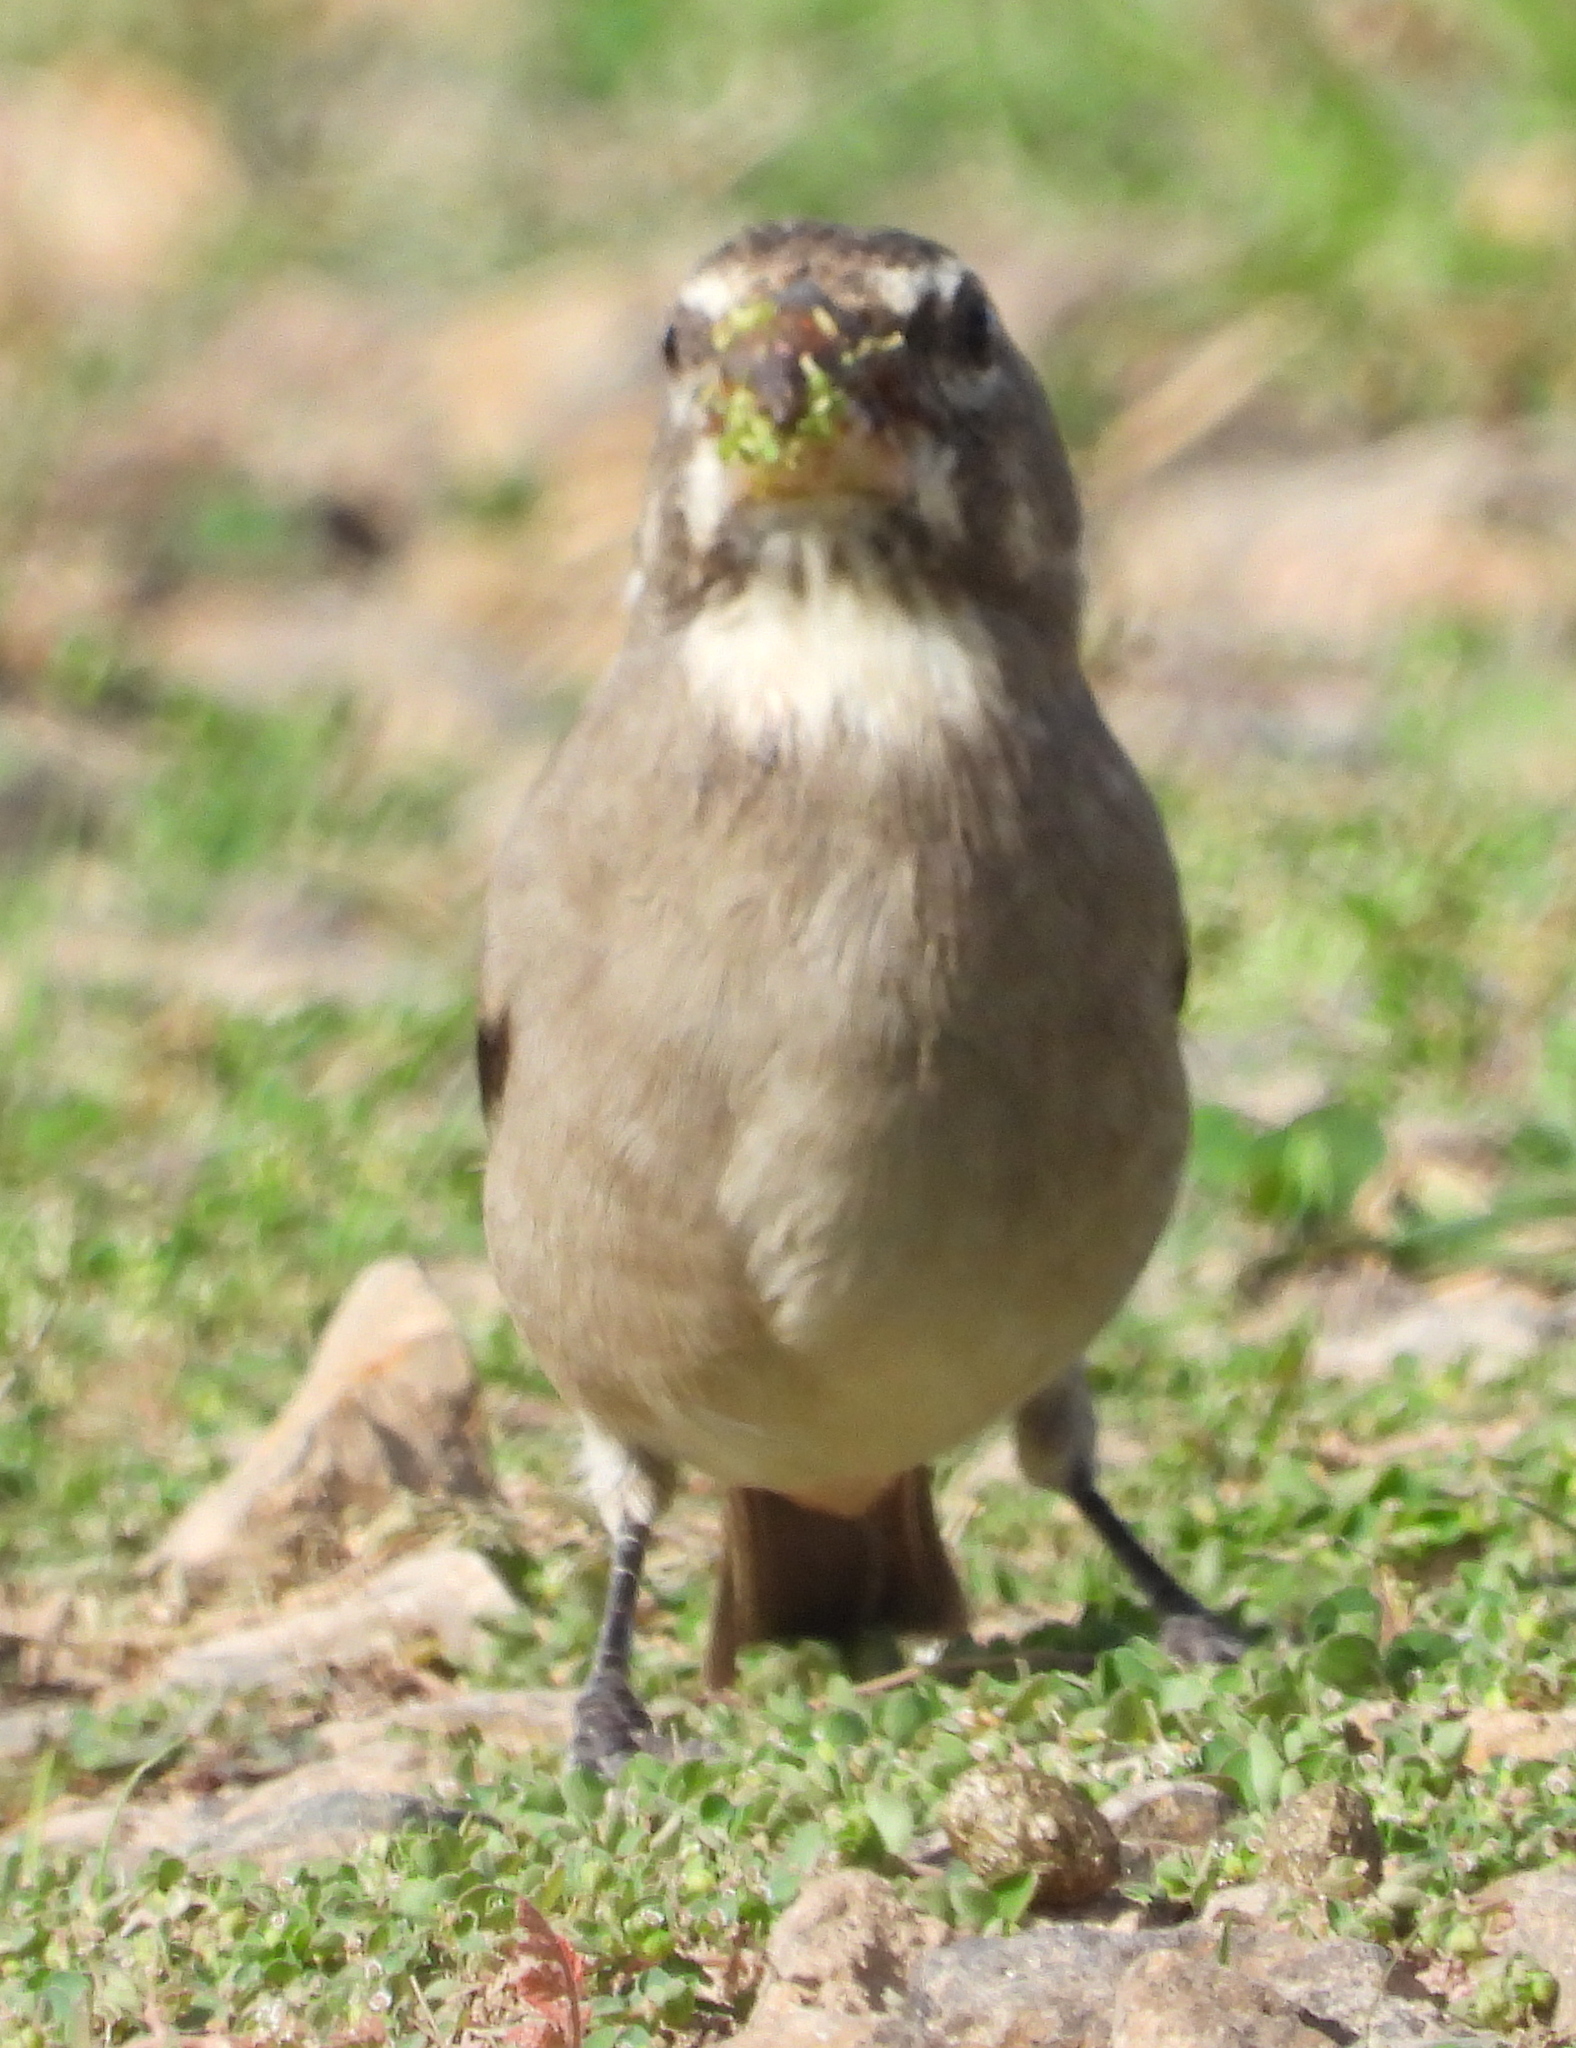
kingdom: Animalia
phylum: Chordata
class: Aves
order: Passeriformes
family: Fringillidae
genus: Crithagra
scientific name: Crithagra albogularis
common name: White-throated canary
